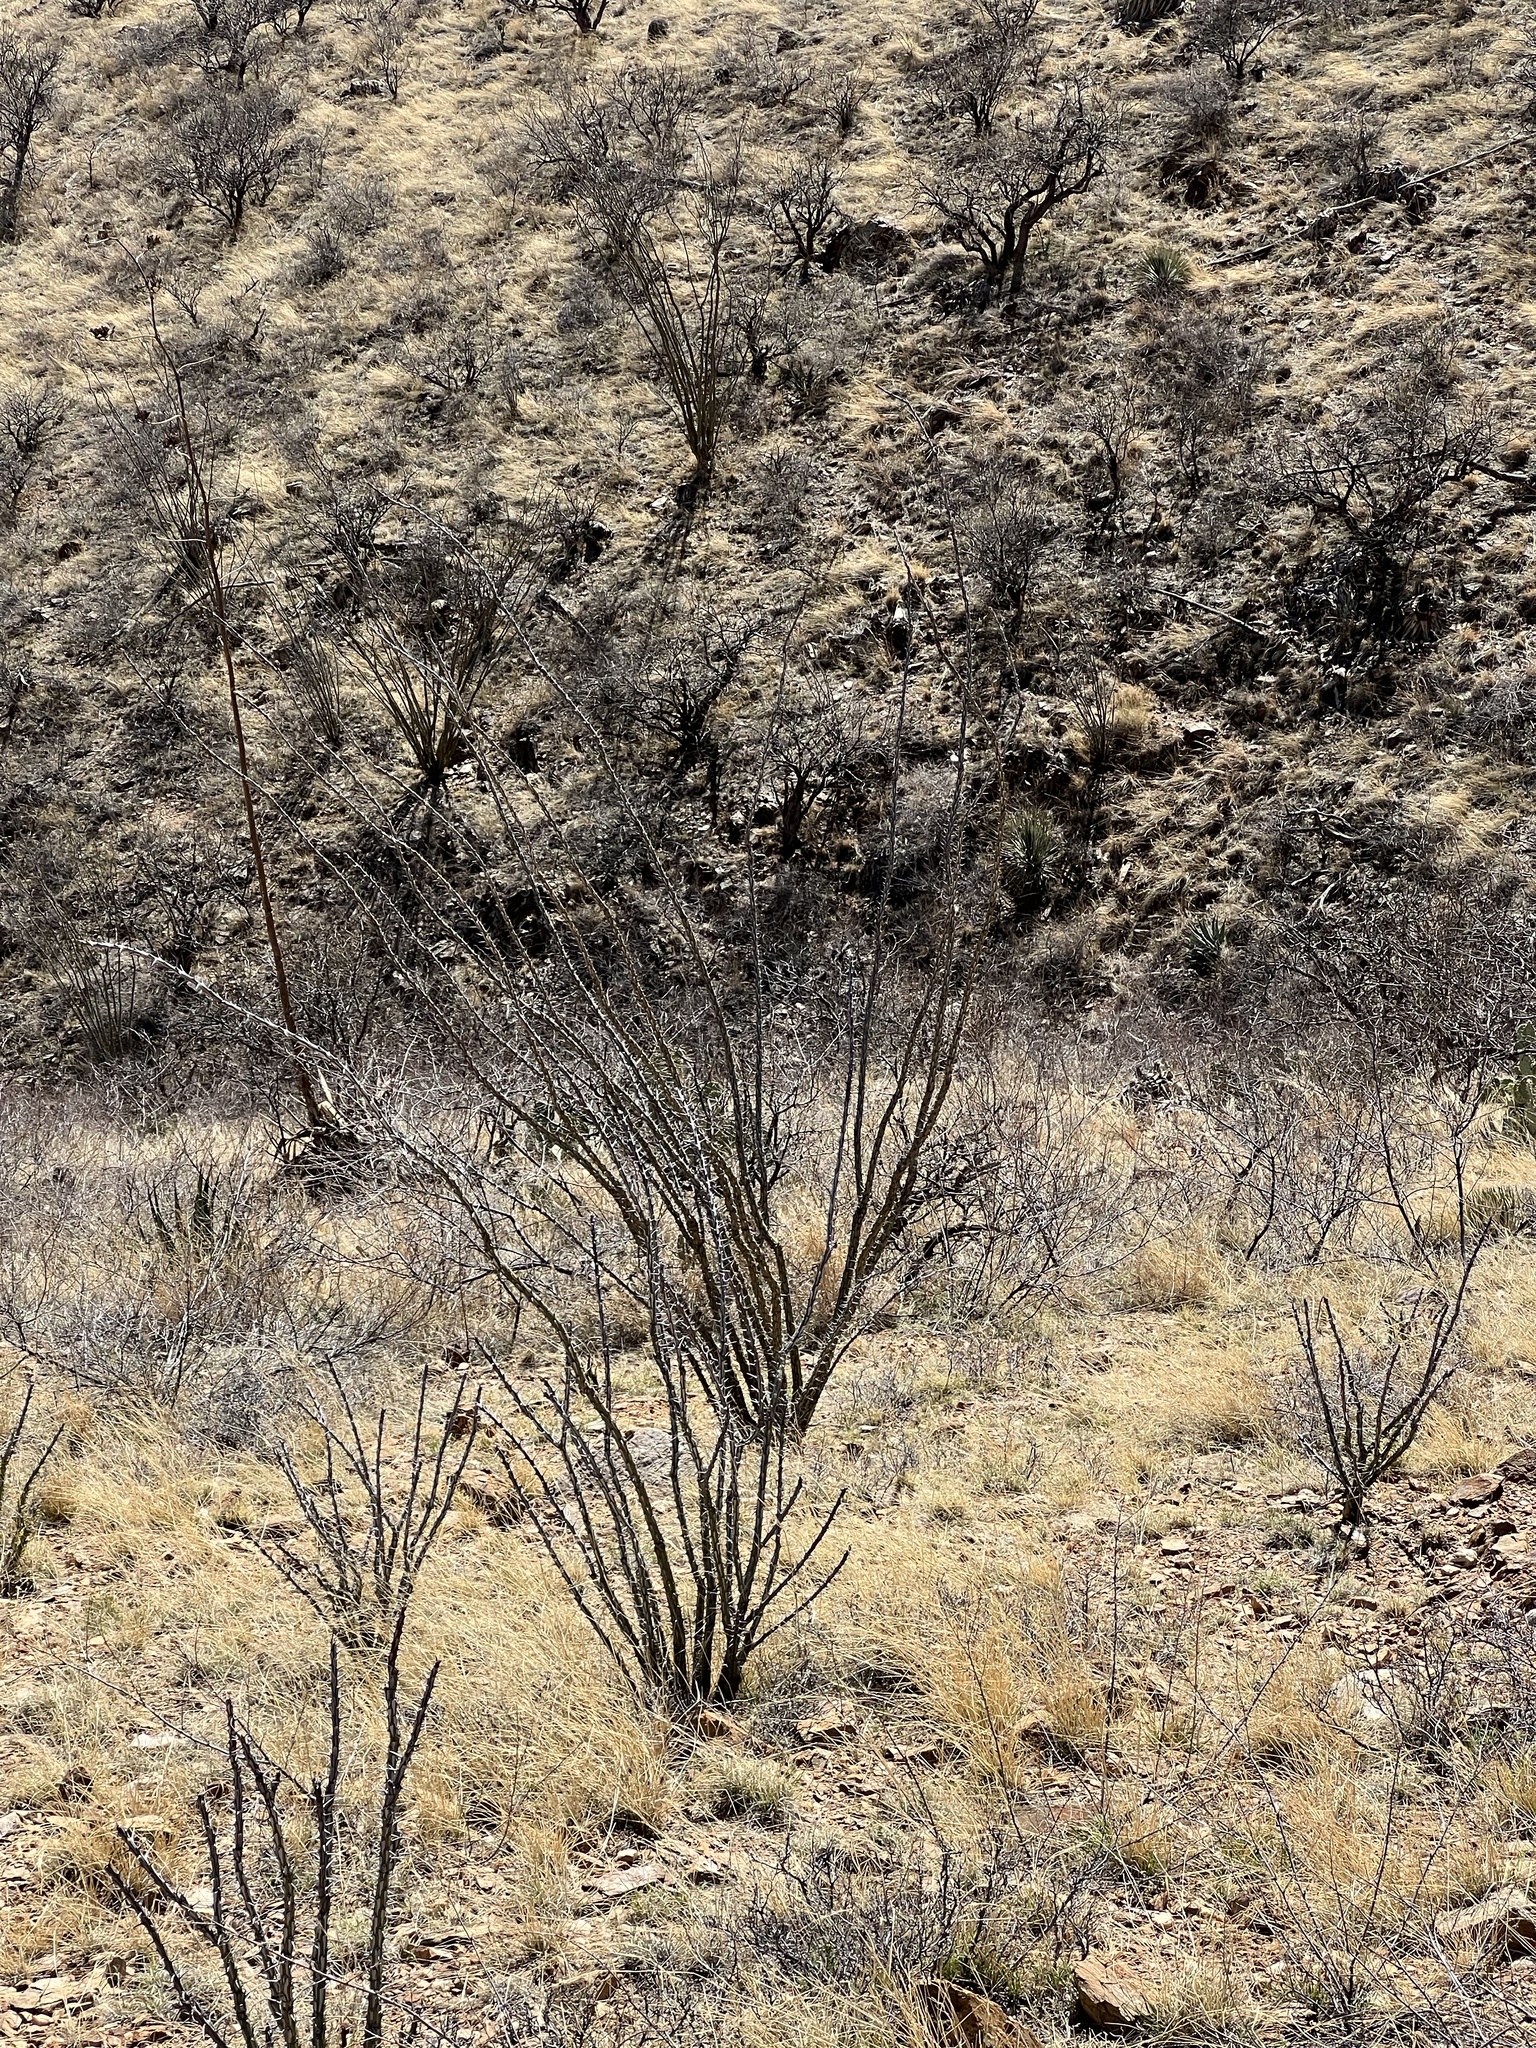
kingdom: Plantae
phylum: Tracheophyta
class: Magnoliopsida
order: Ericales
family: Fouquieriaceae
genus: Fouquieria
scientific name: Fouquieria splendens
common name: Vine-cactus
